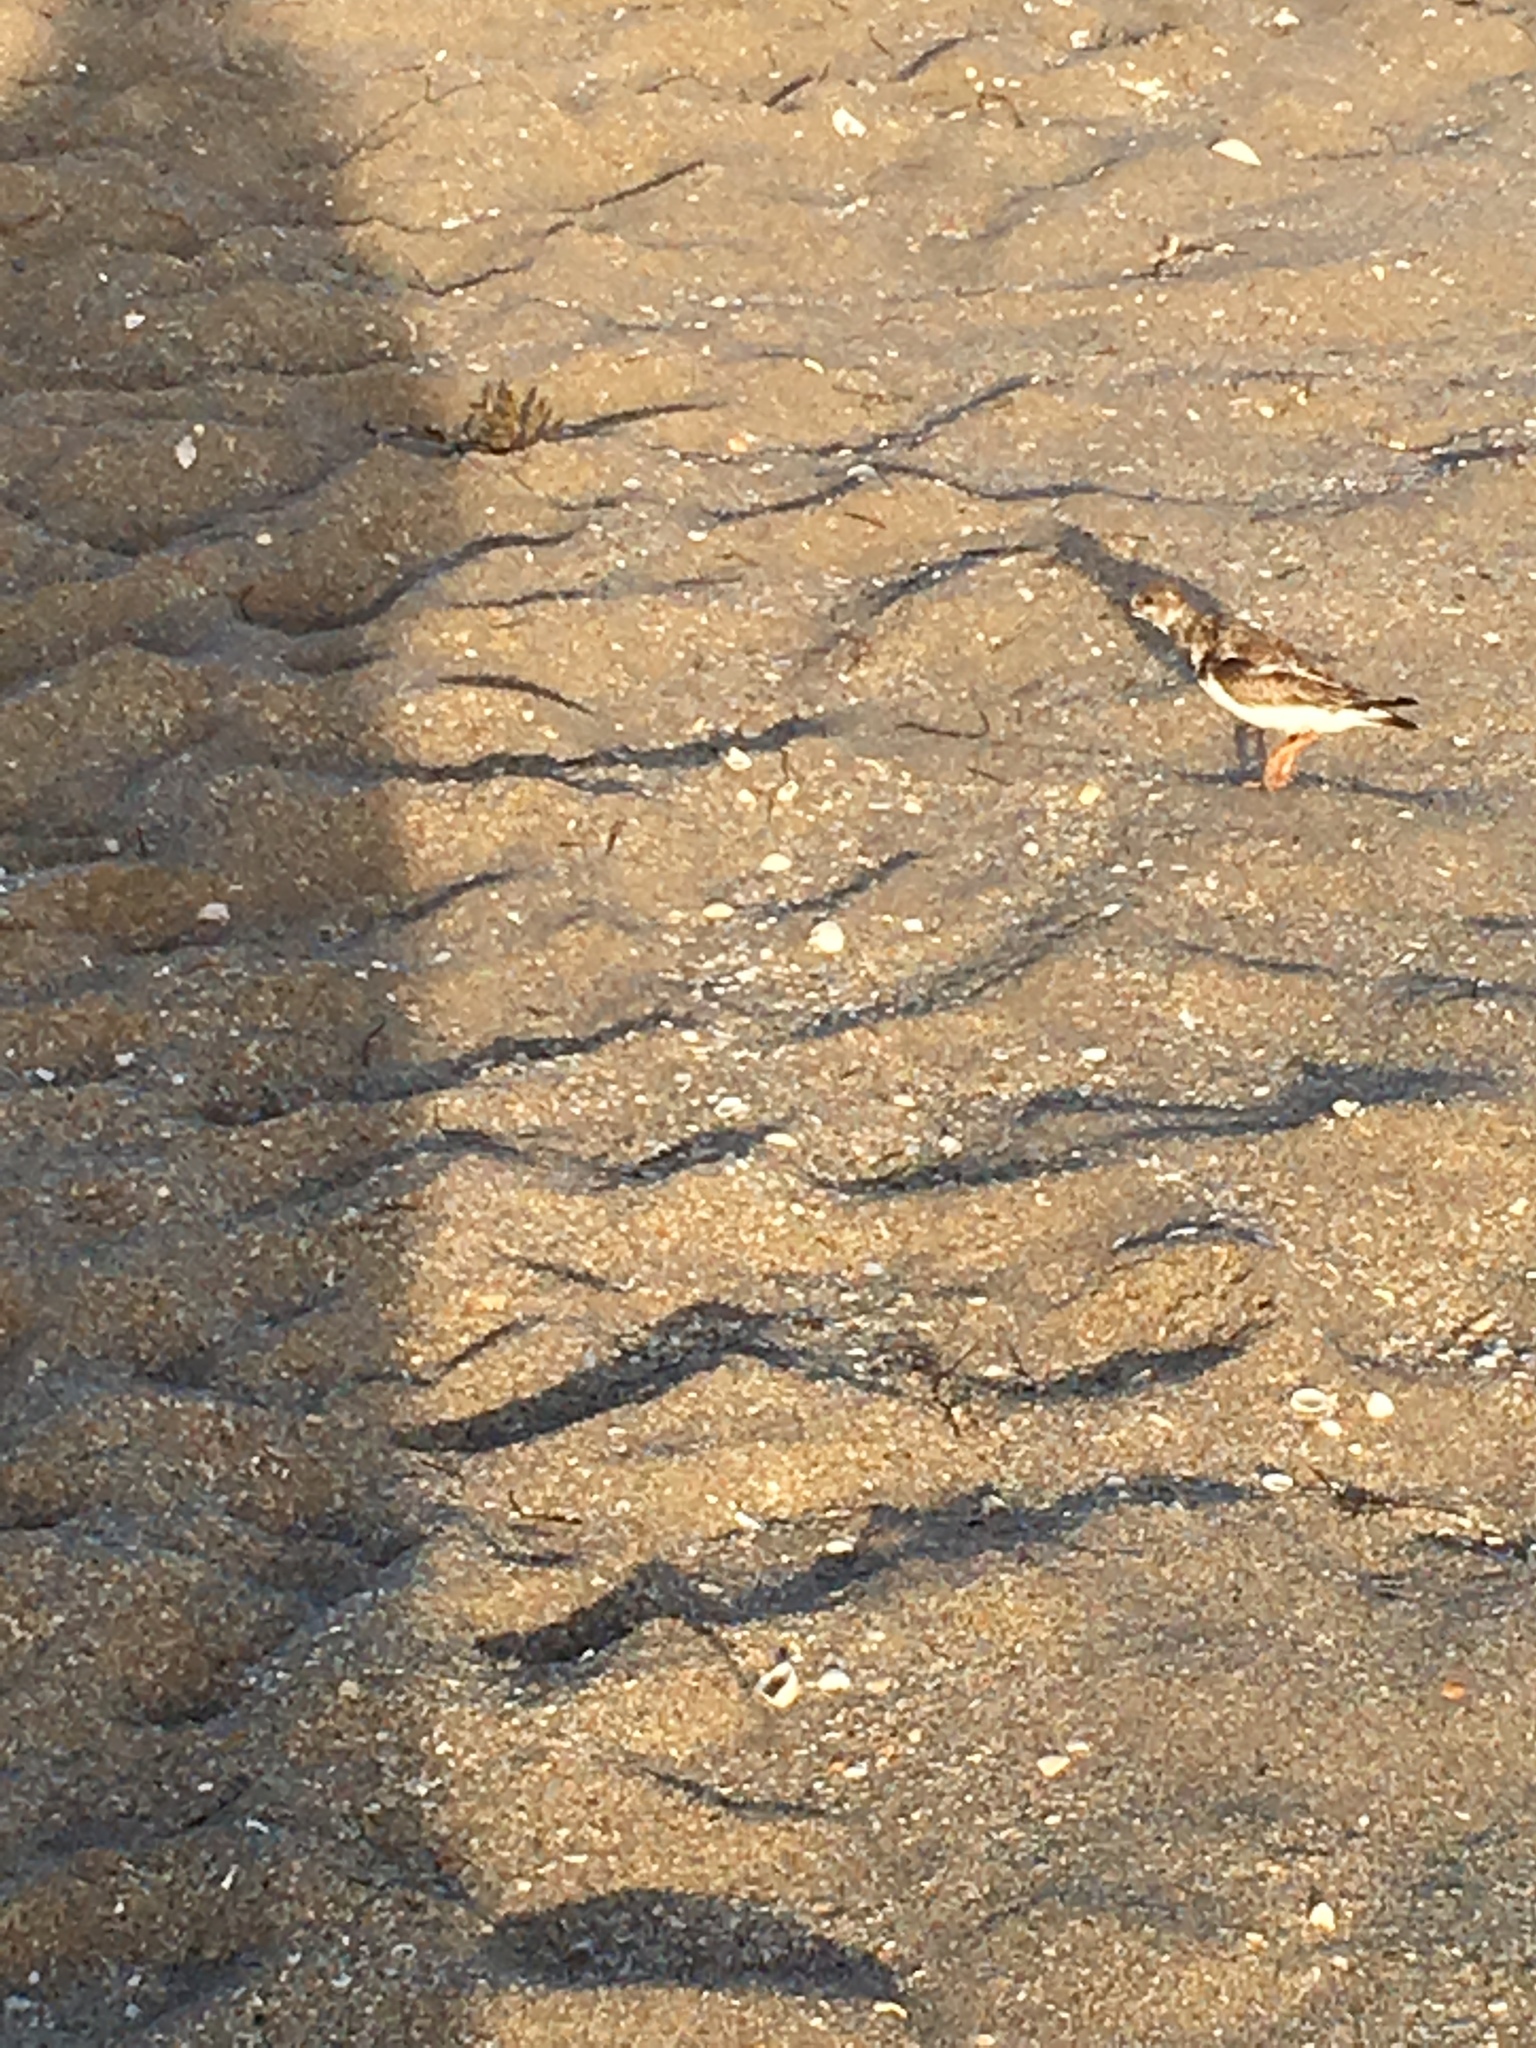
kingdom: Animalia
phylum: Chordata
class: Aves
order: Charadriiformes
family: Scolopacidae
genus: Arenaria
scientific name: Arenaria interpres
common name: Ruddy turnstone
